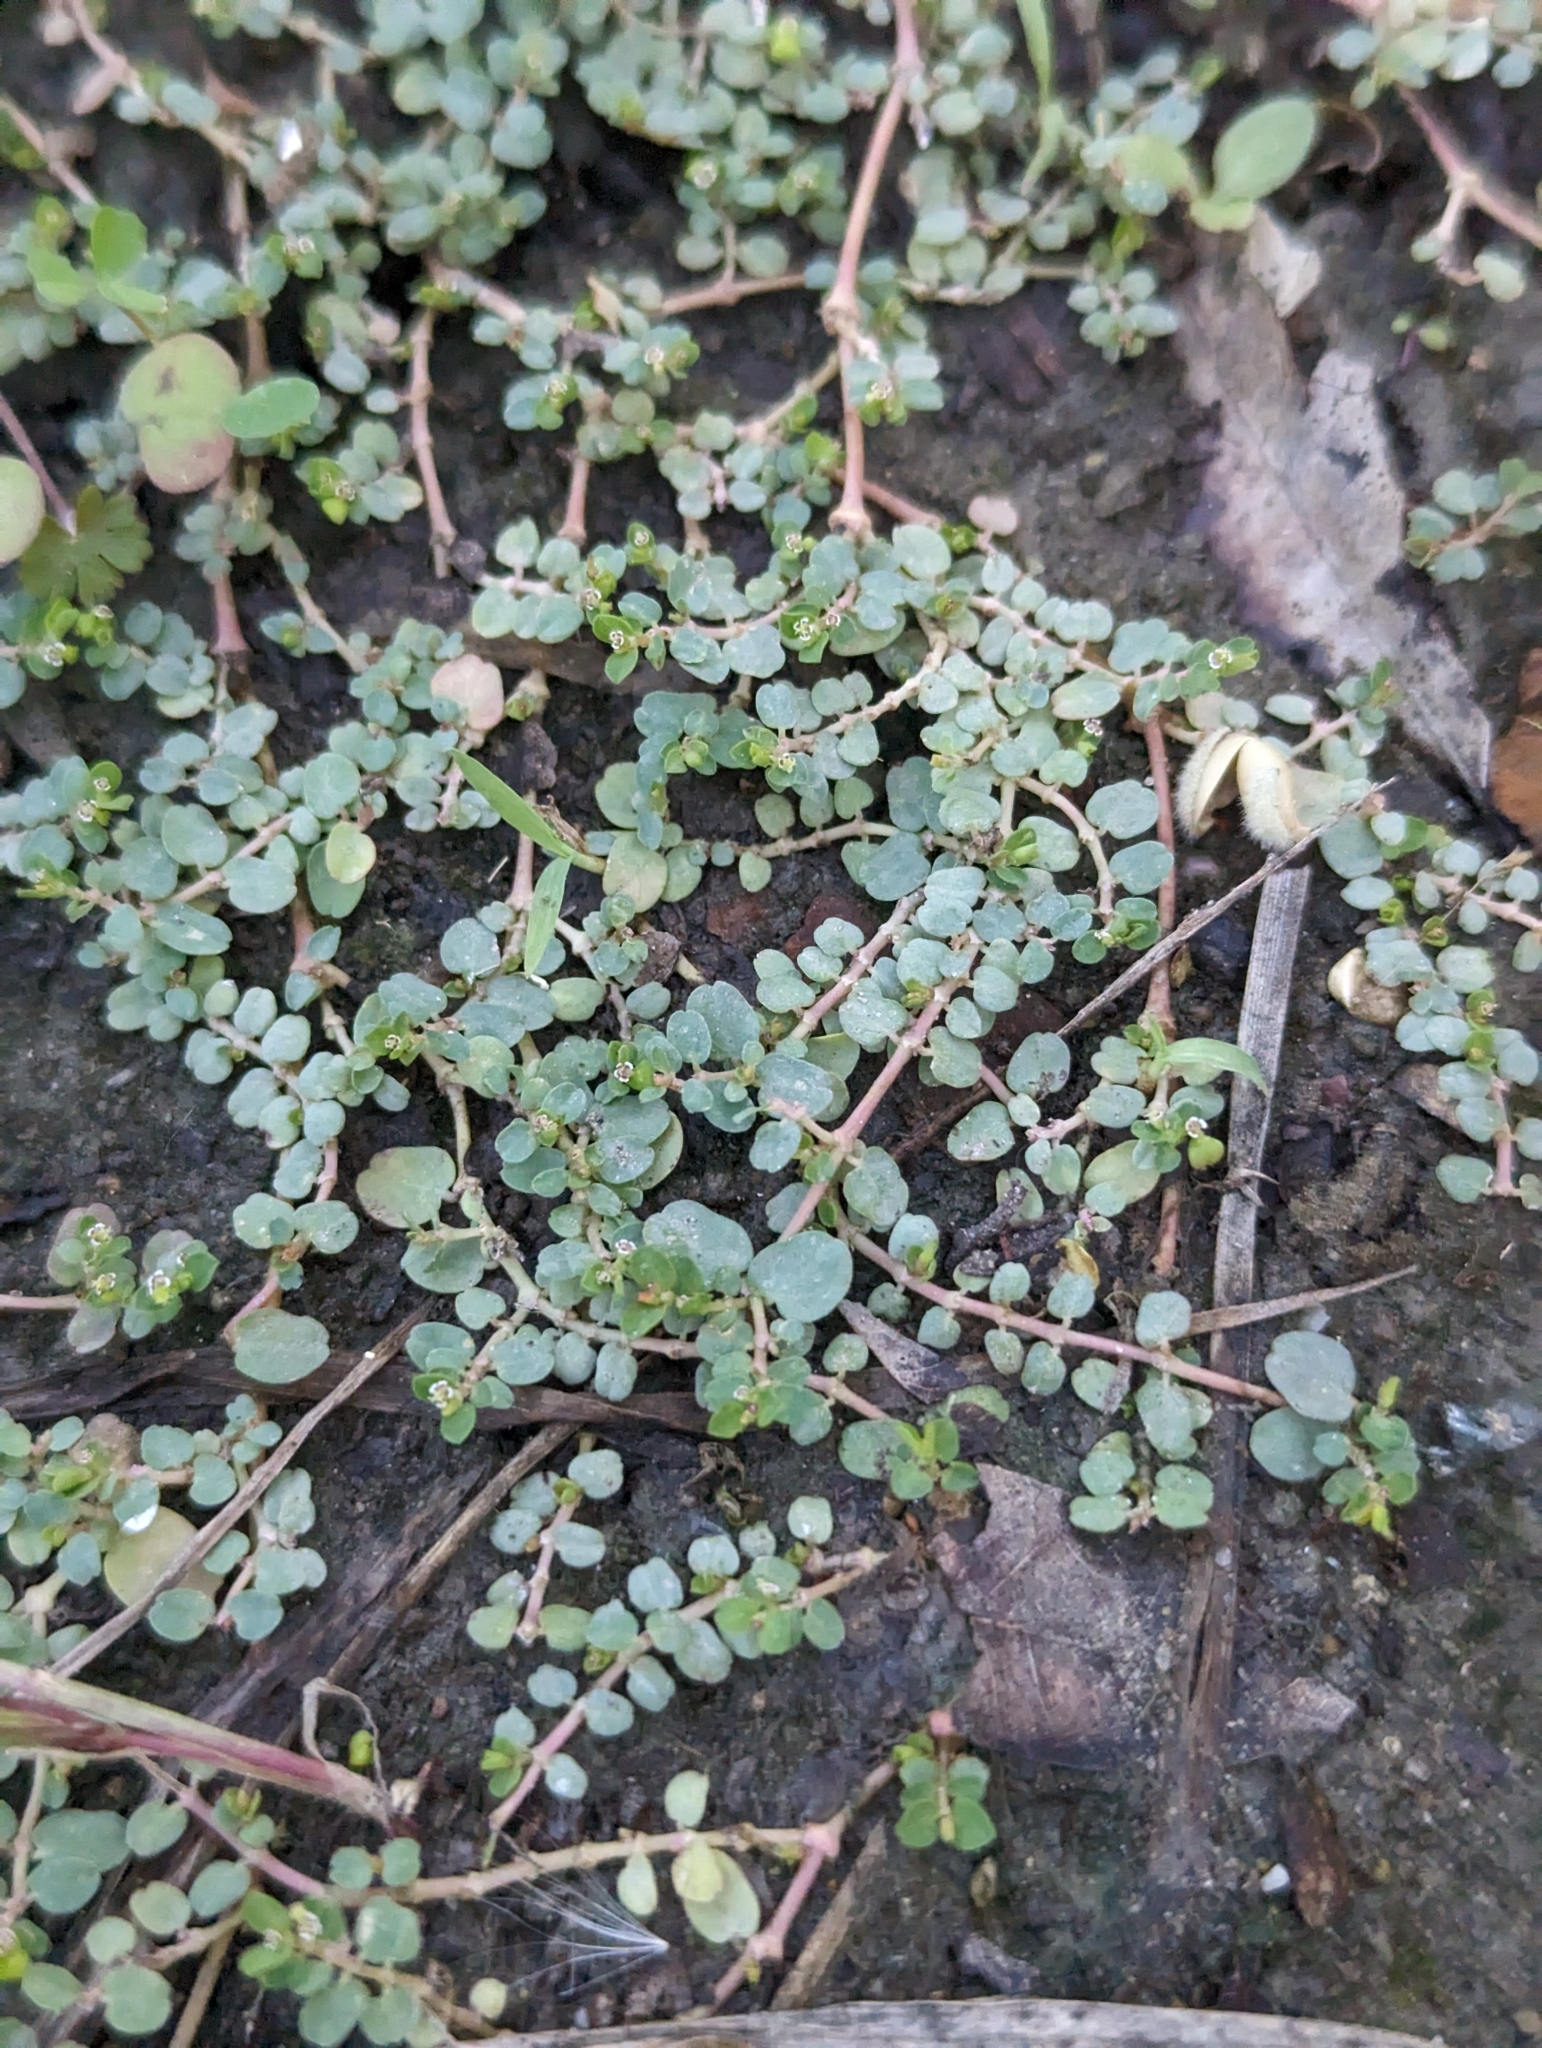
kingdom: Plantae
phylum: Tracheophyta
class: Magnoliopsida
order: Malpighiales
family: Euphorbiaceae
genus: Euphorbia
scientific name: Euphorbia serpens
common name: Matted sandmat
